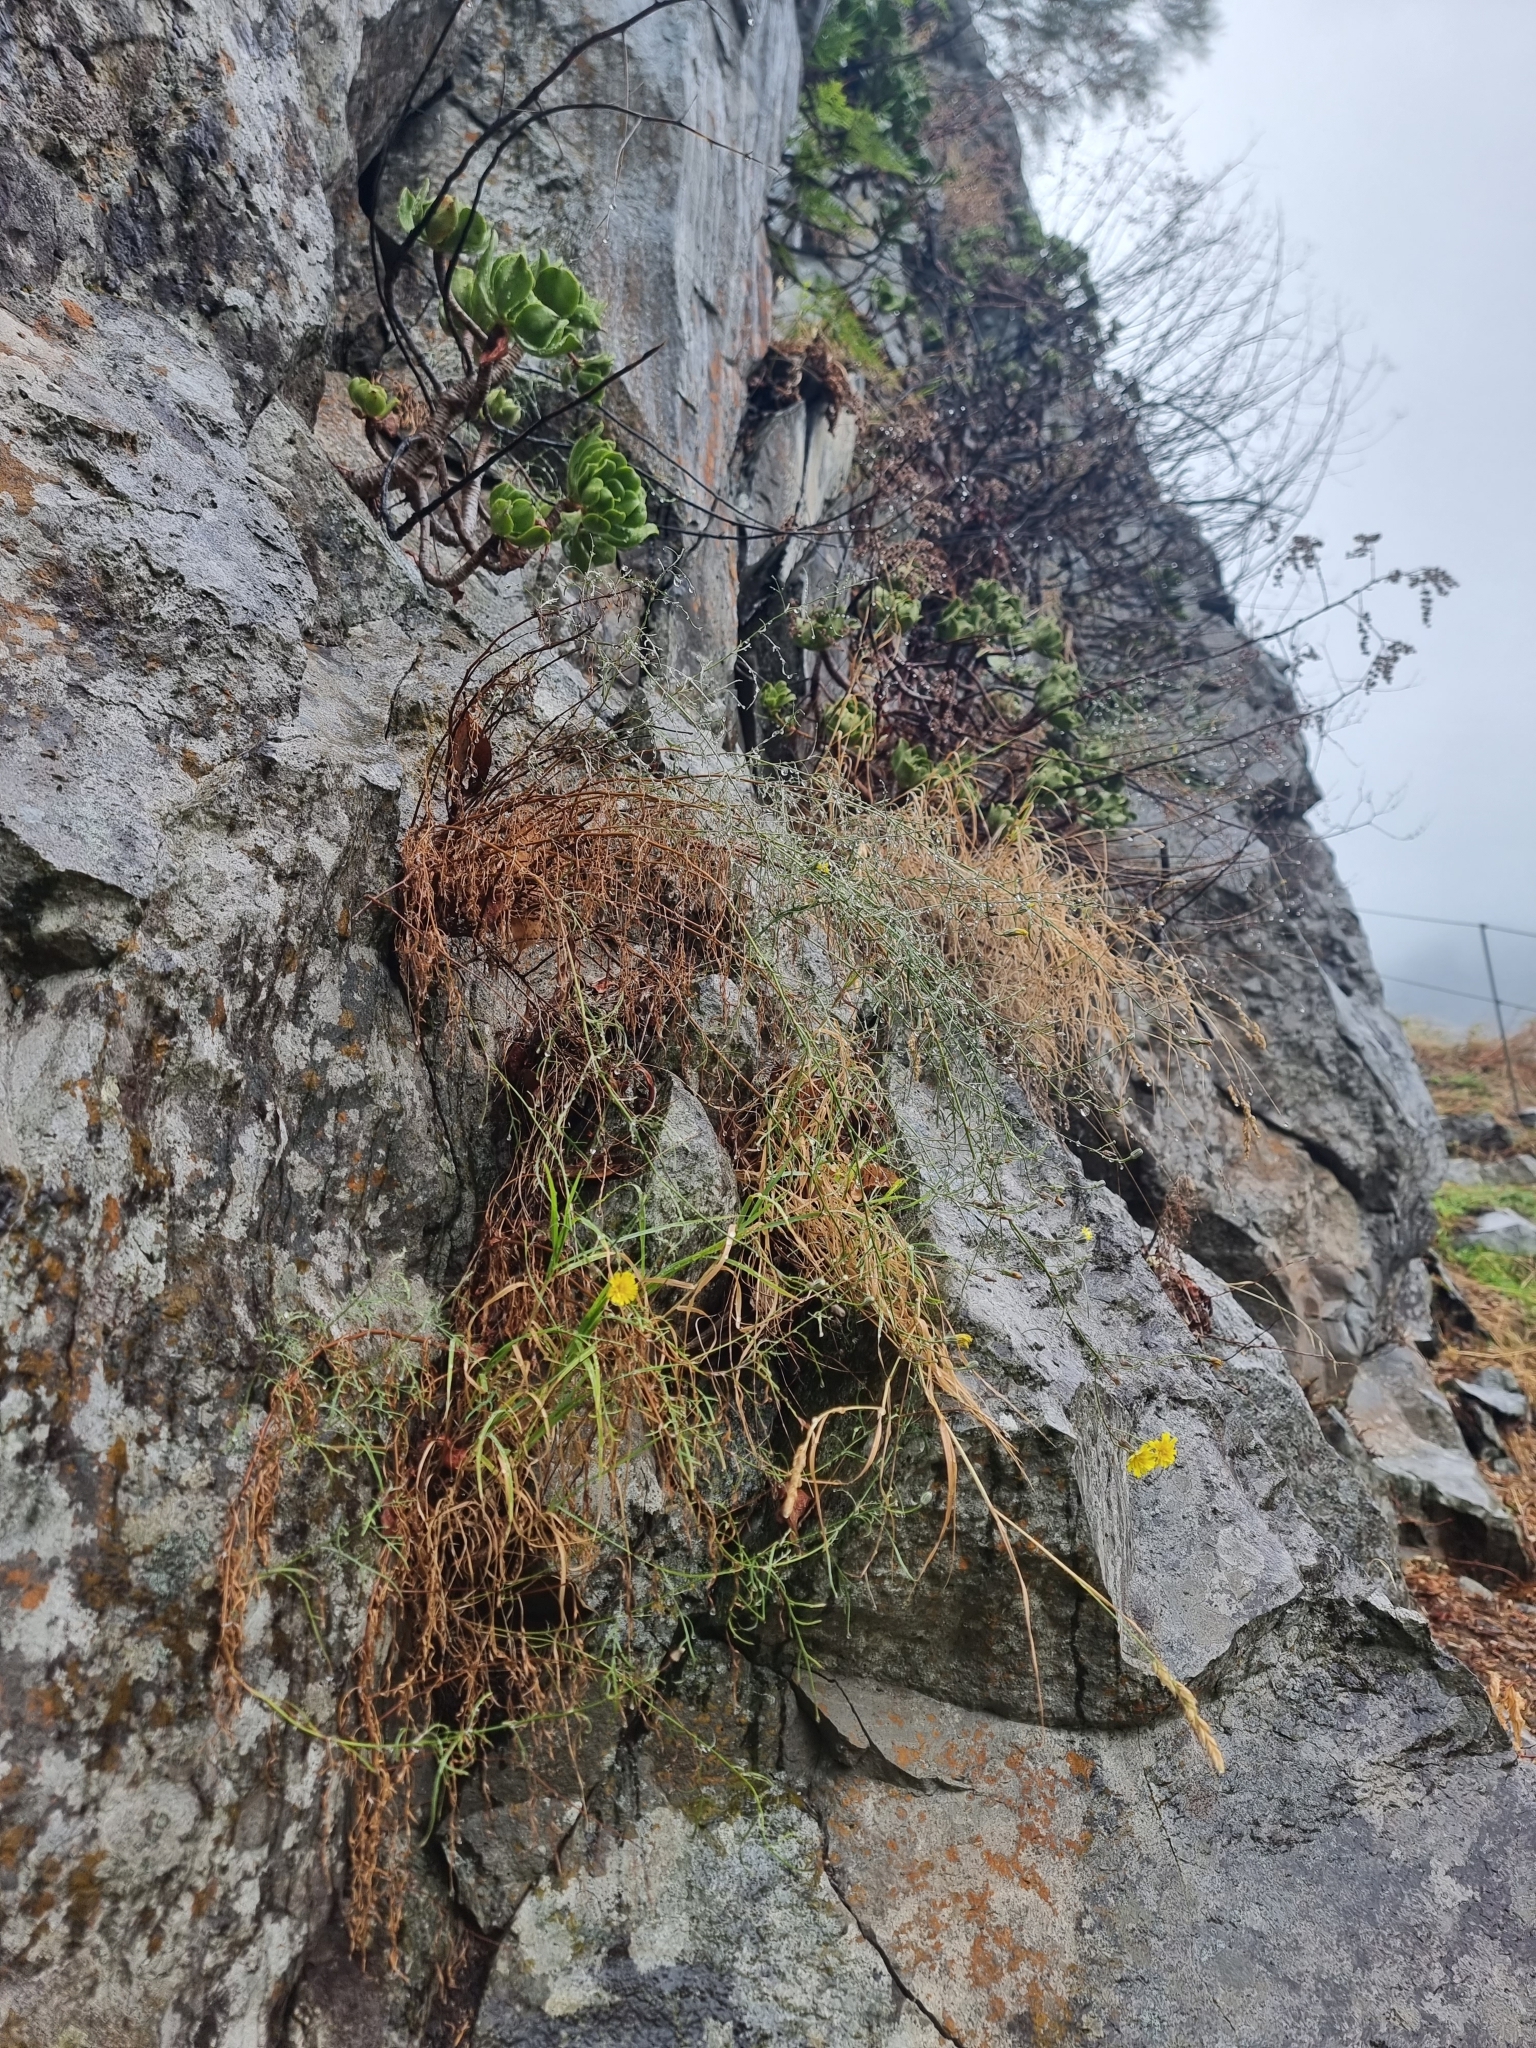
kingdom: Plantae
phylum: Tracheophyta
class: Magnoliopsida
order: Asterales
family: Asteraceae
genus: Tolpis
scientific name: Tolpis succulenta
